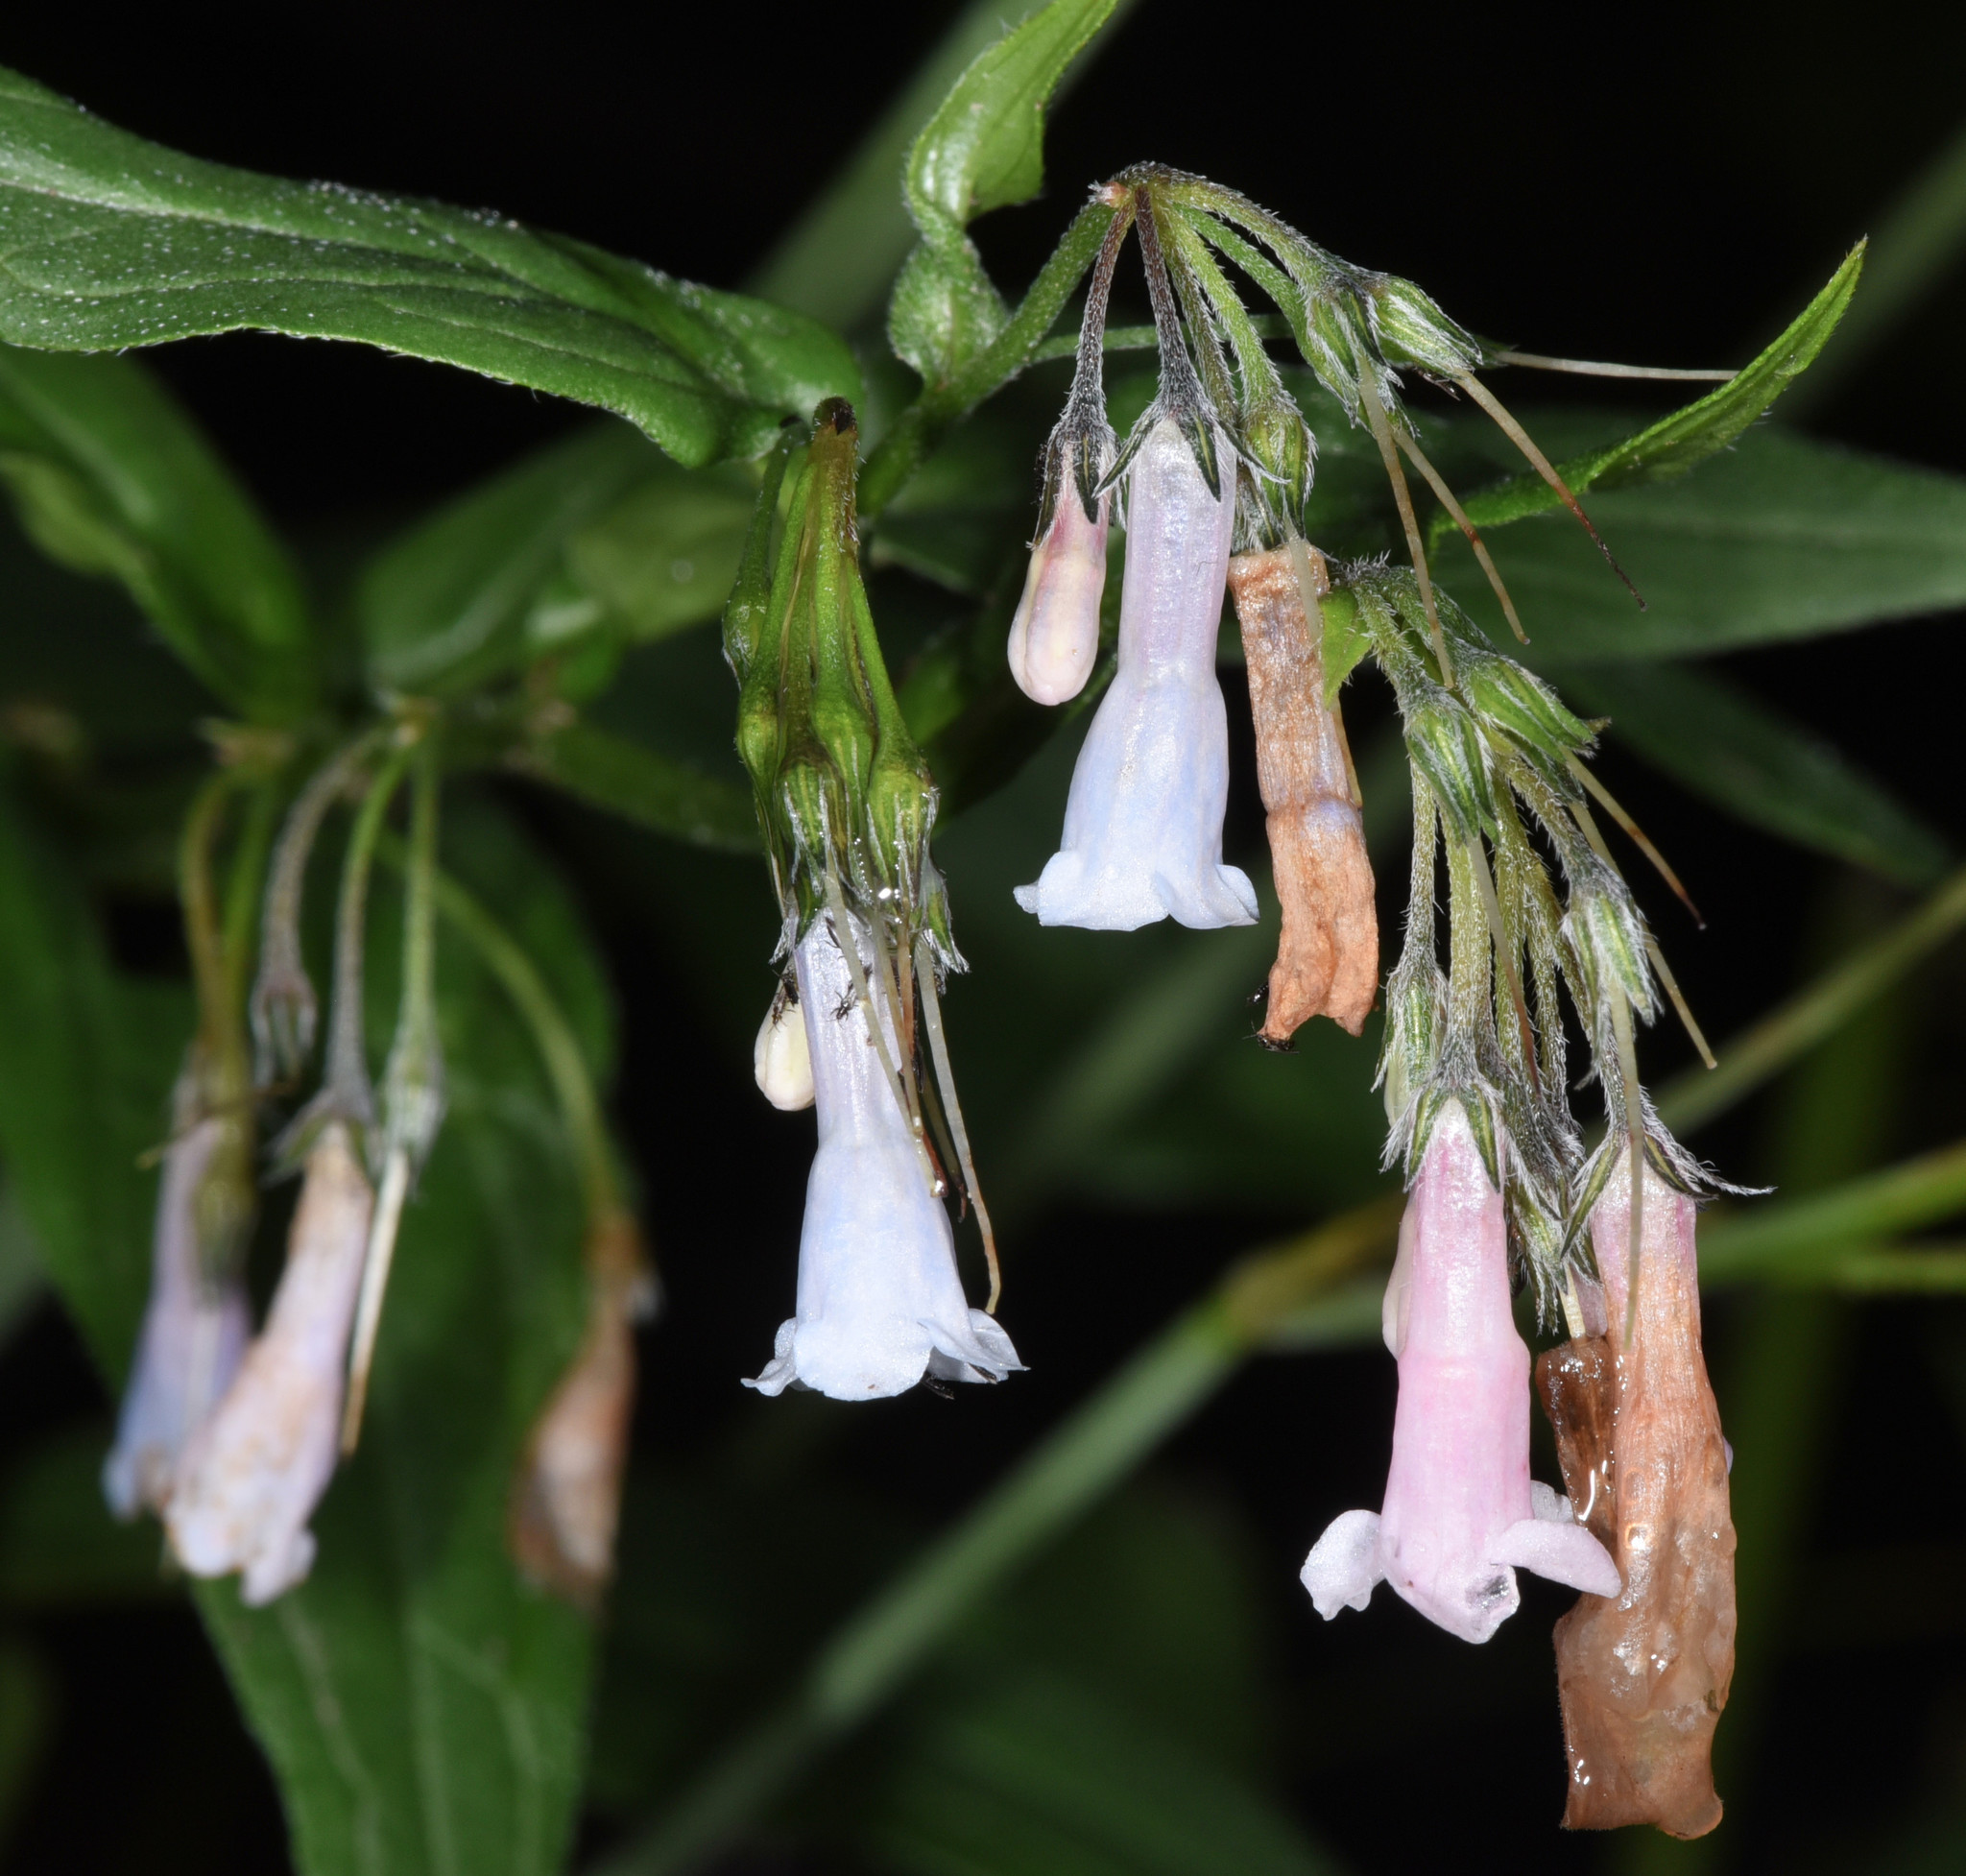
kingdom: Plantae
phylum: Tracheophyta
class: Magnoliopsida
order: Boraginales
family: Boraginaceae
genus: Mertensia
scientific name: Mertensia franciscana
